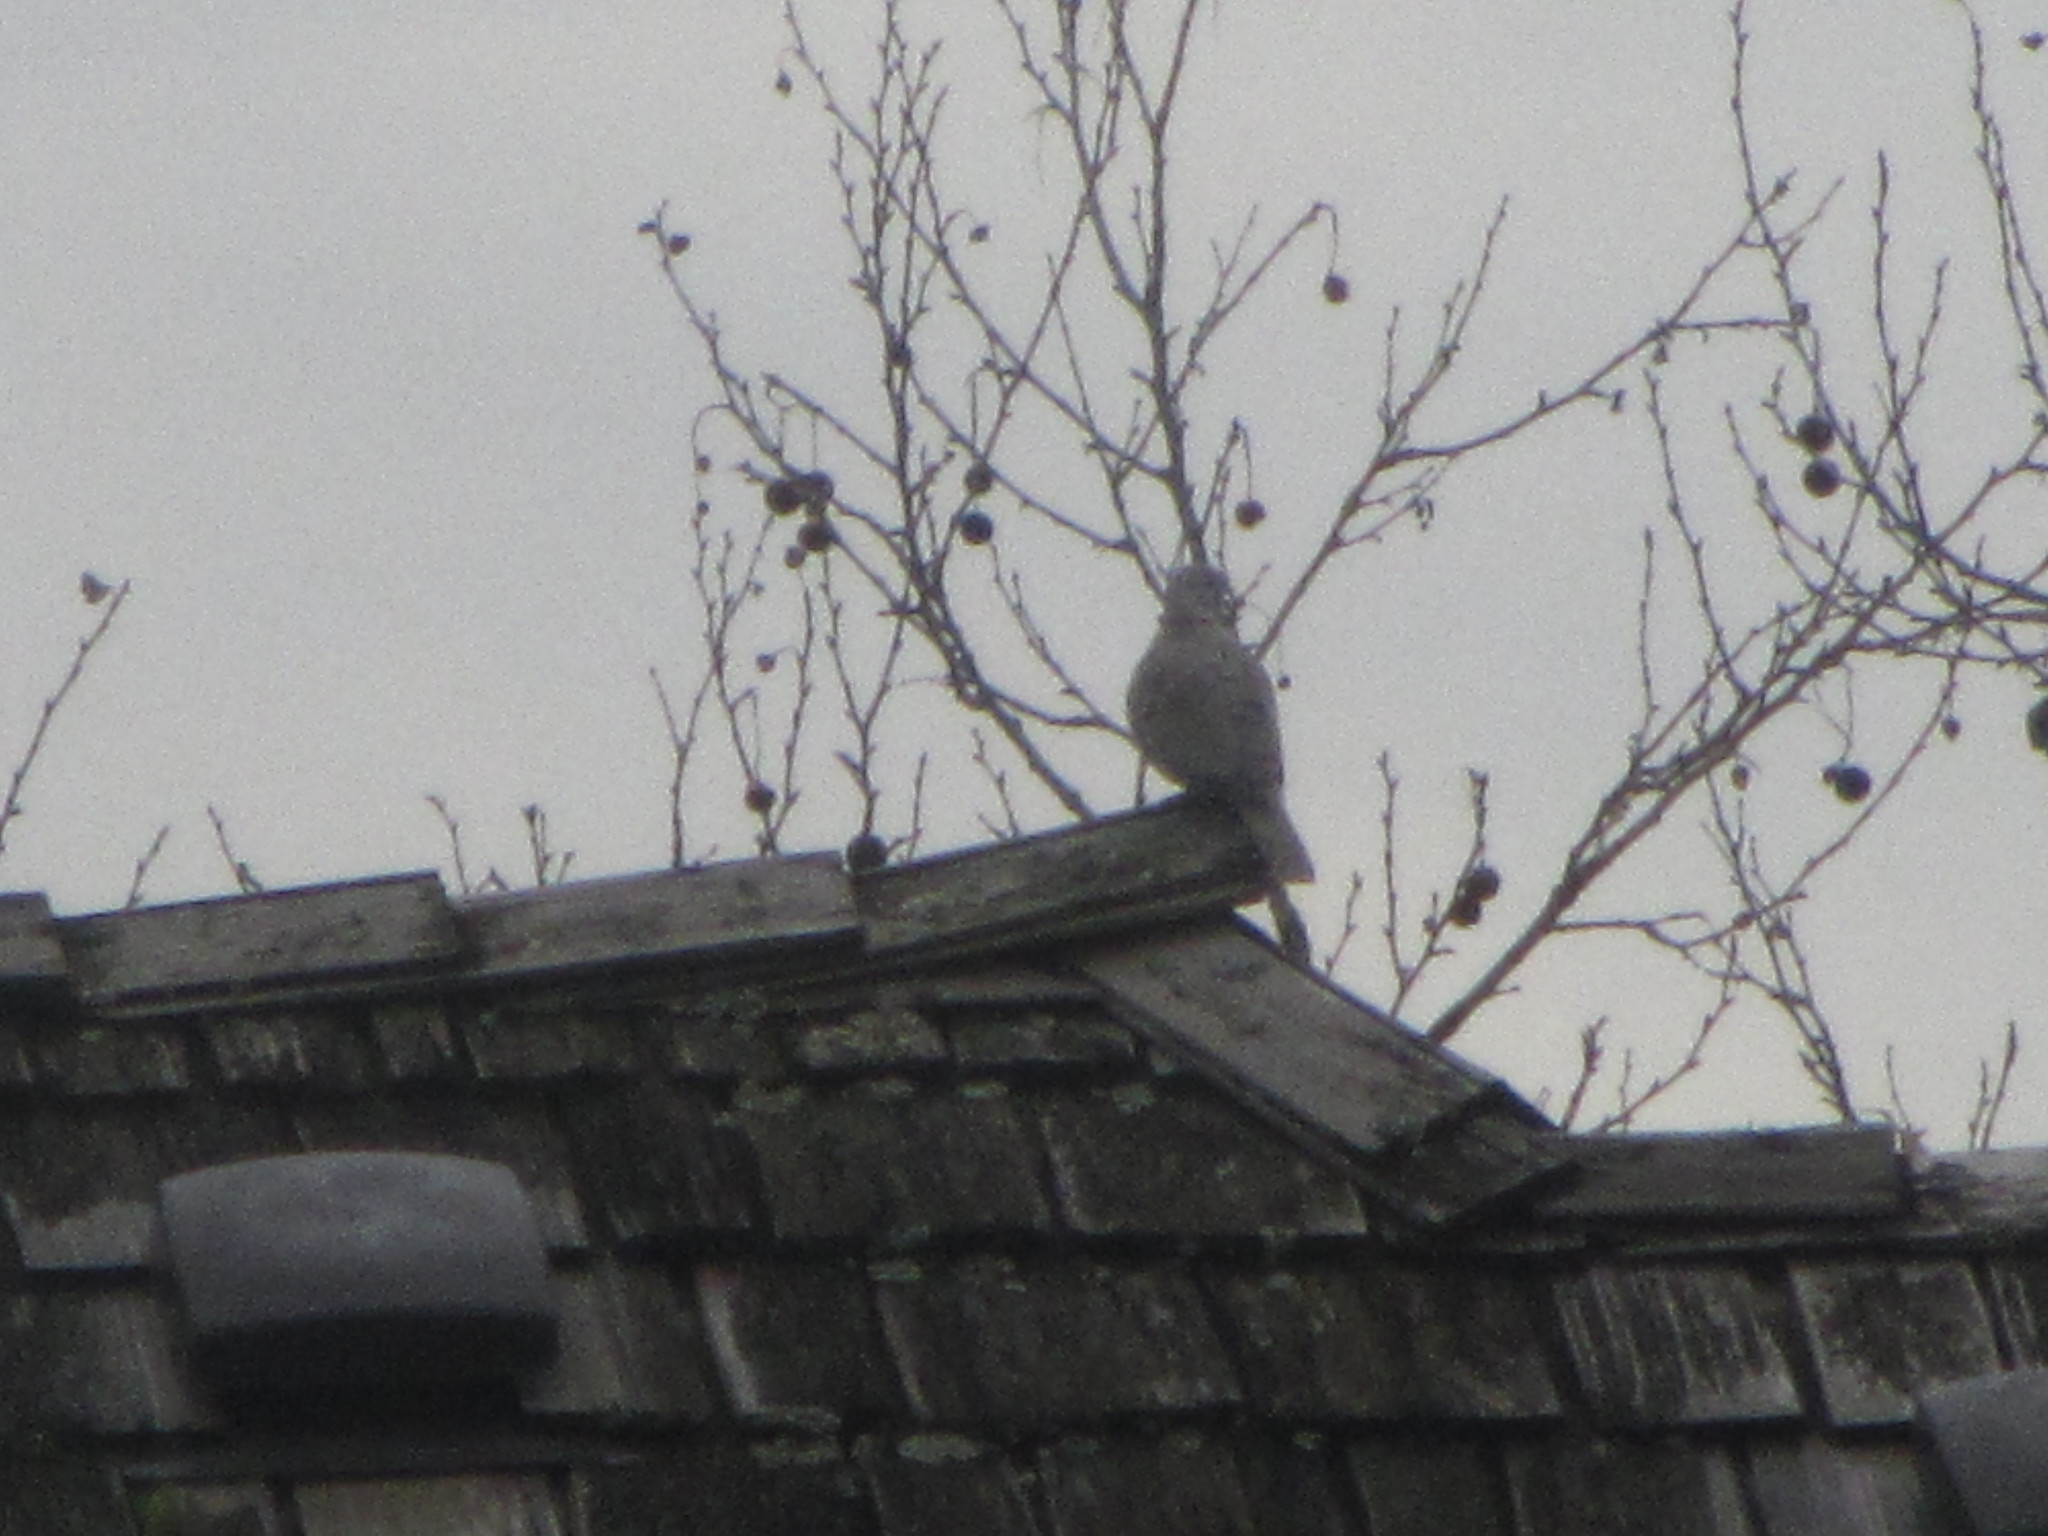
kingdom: Animalia
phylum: Chordata
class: Aves
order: Columbiformes
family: Columbidae
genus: Streptopelia
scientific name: Streptopelia decaocto
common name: Eurasian collared dove
